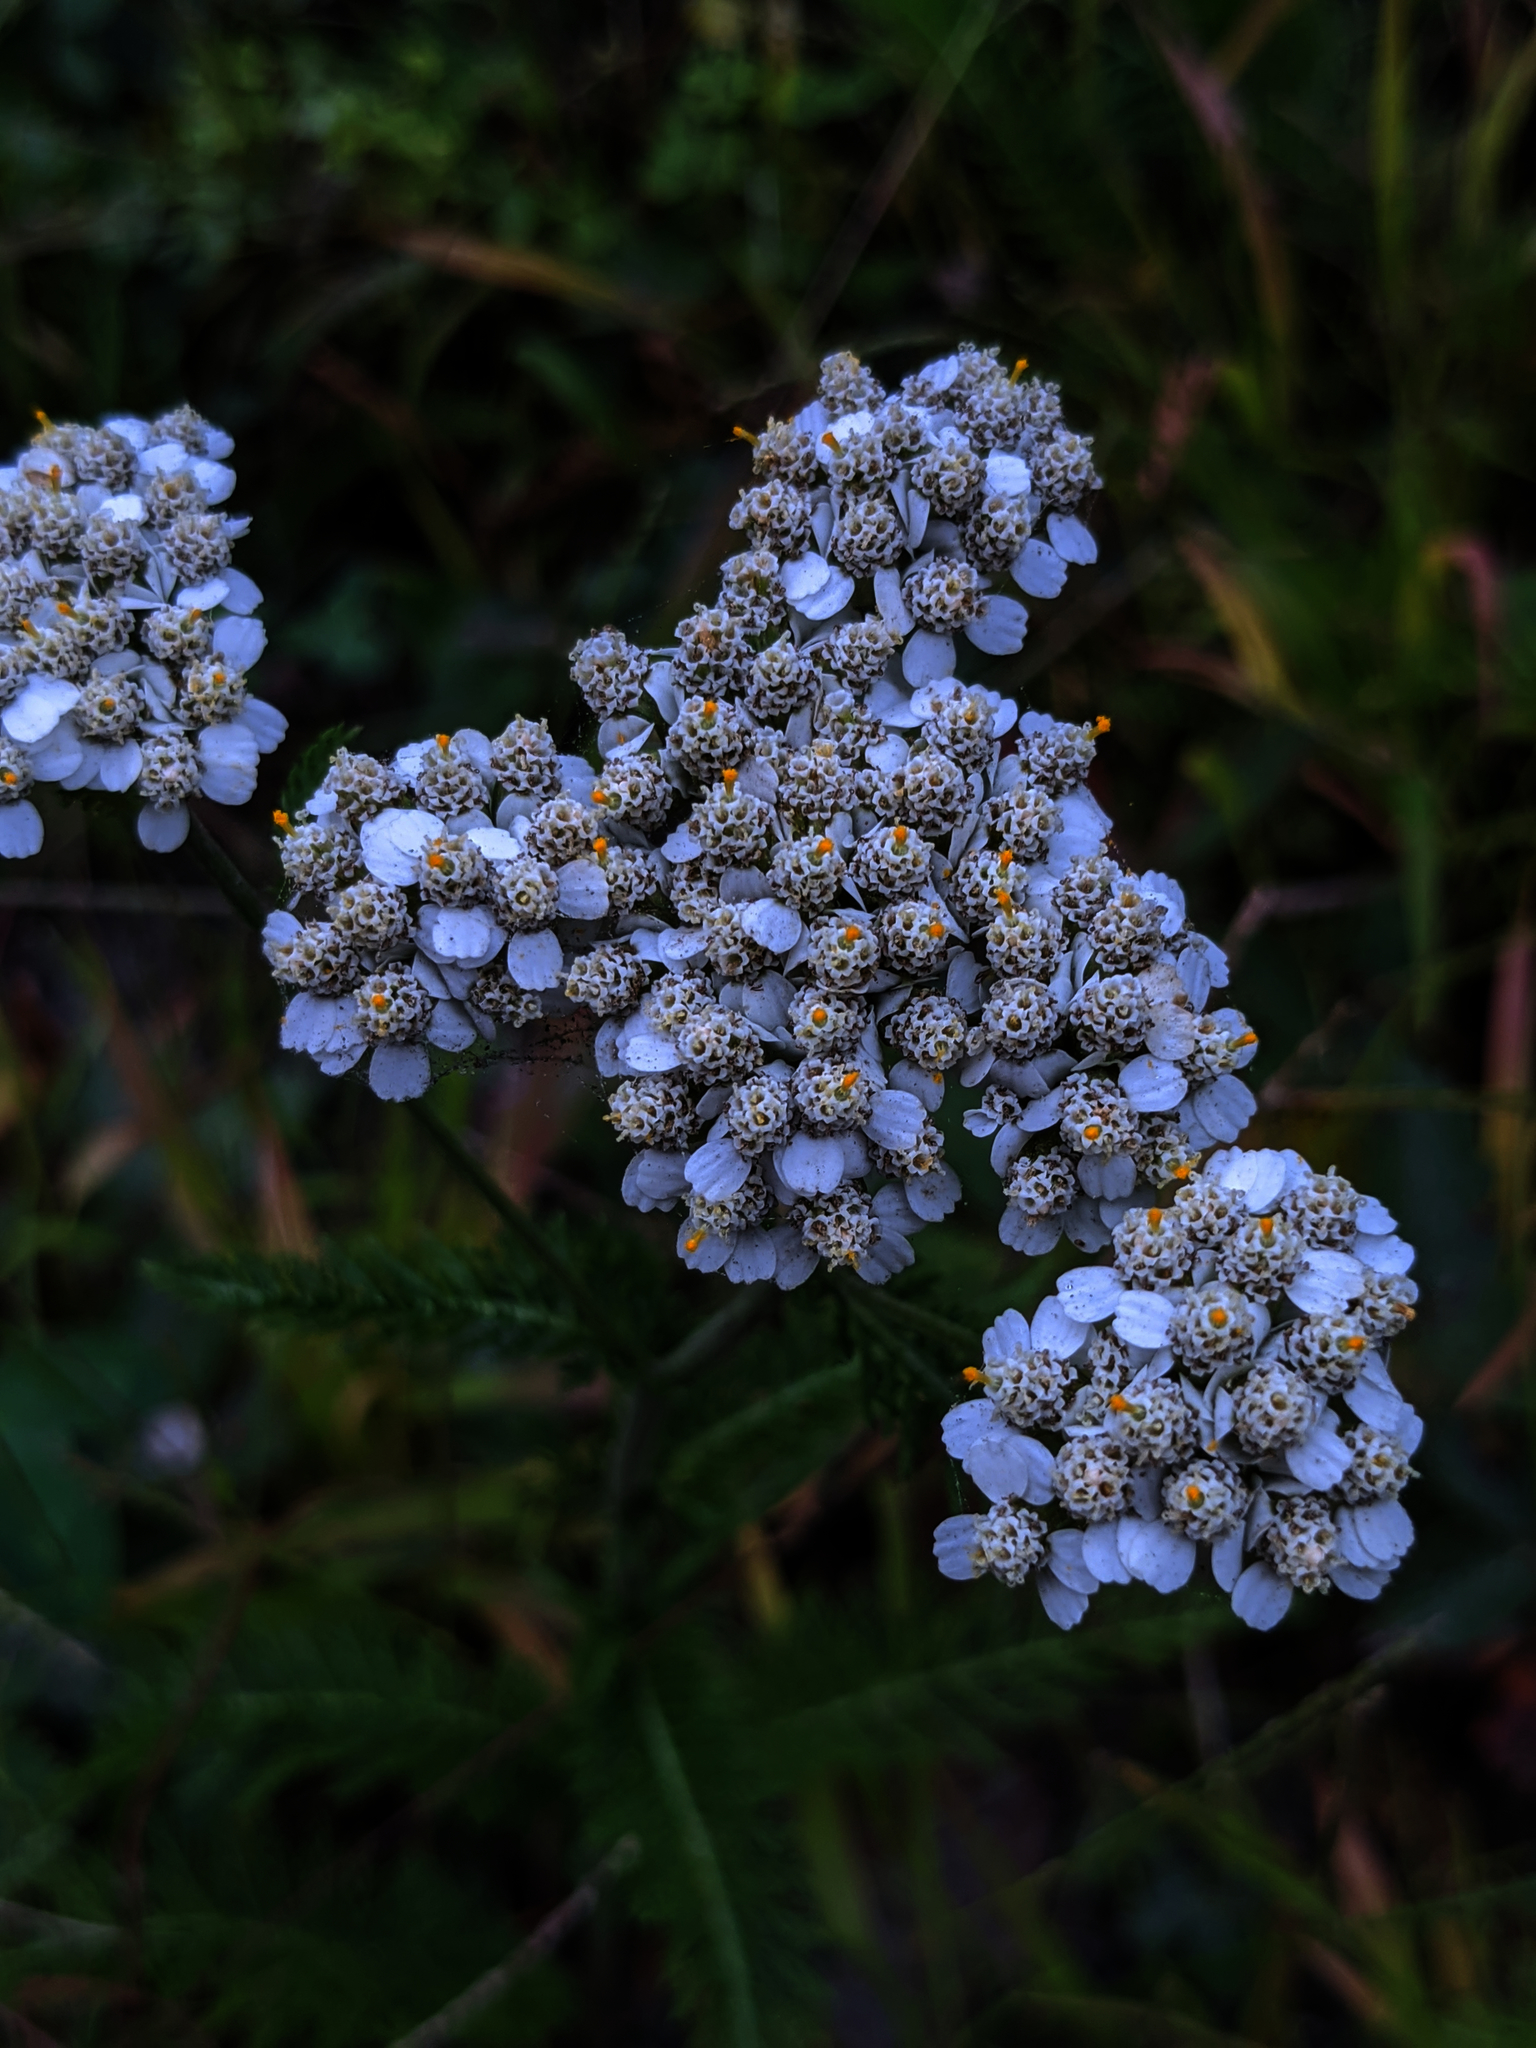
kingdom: Plantae
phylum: Tracheophyta
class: Magnoliopsida
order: Asterales
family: Asteraceae
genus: Achillea
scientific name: Achillea millefolium
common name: Yarrow
